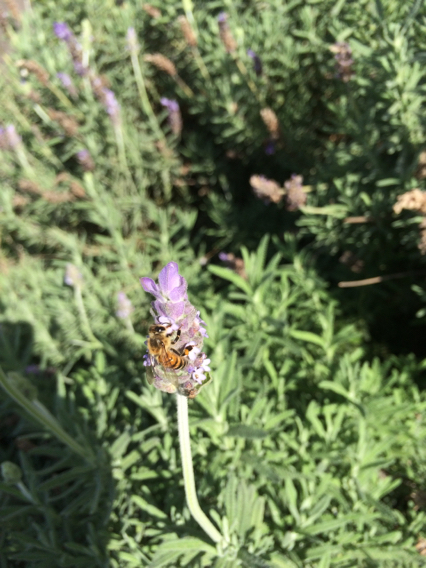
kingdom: Animalia
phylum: Arthropoda
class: Insecta
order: Hymenoptera
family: Apidae
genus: Apis
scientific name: Apis mellifera
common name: Honey bee
